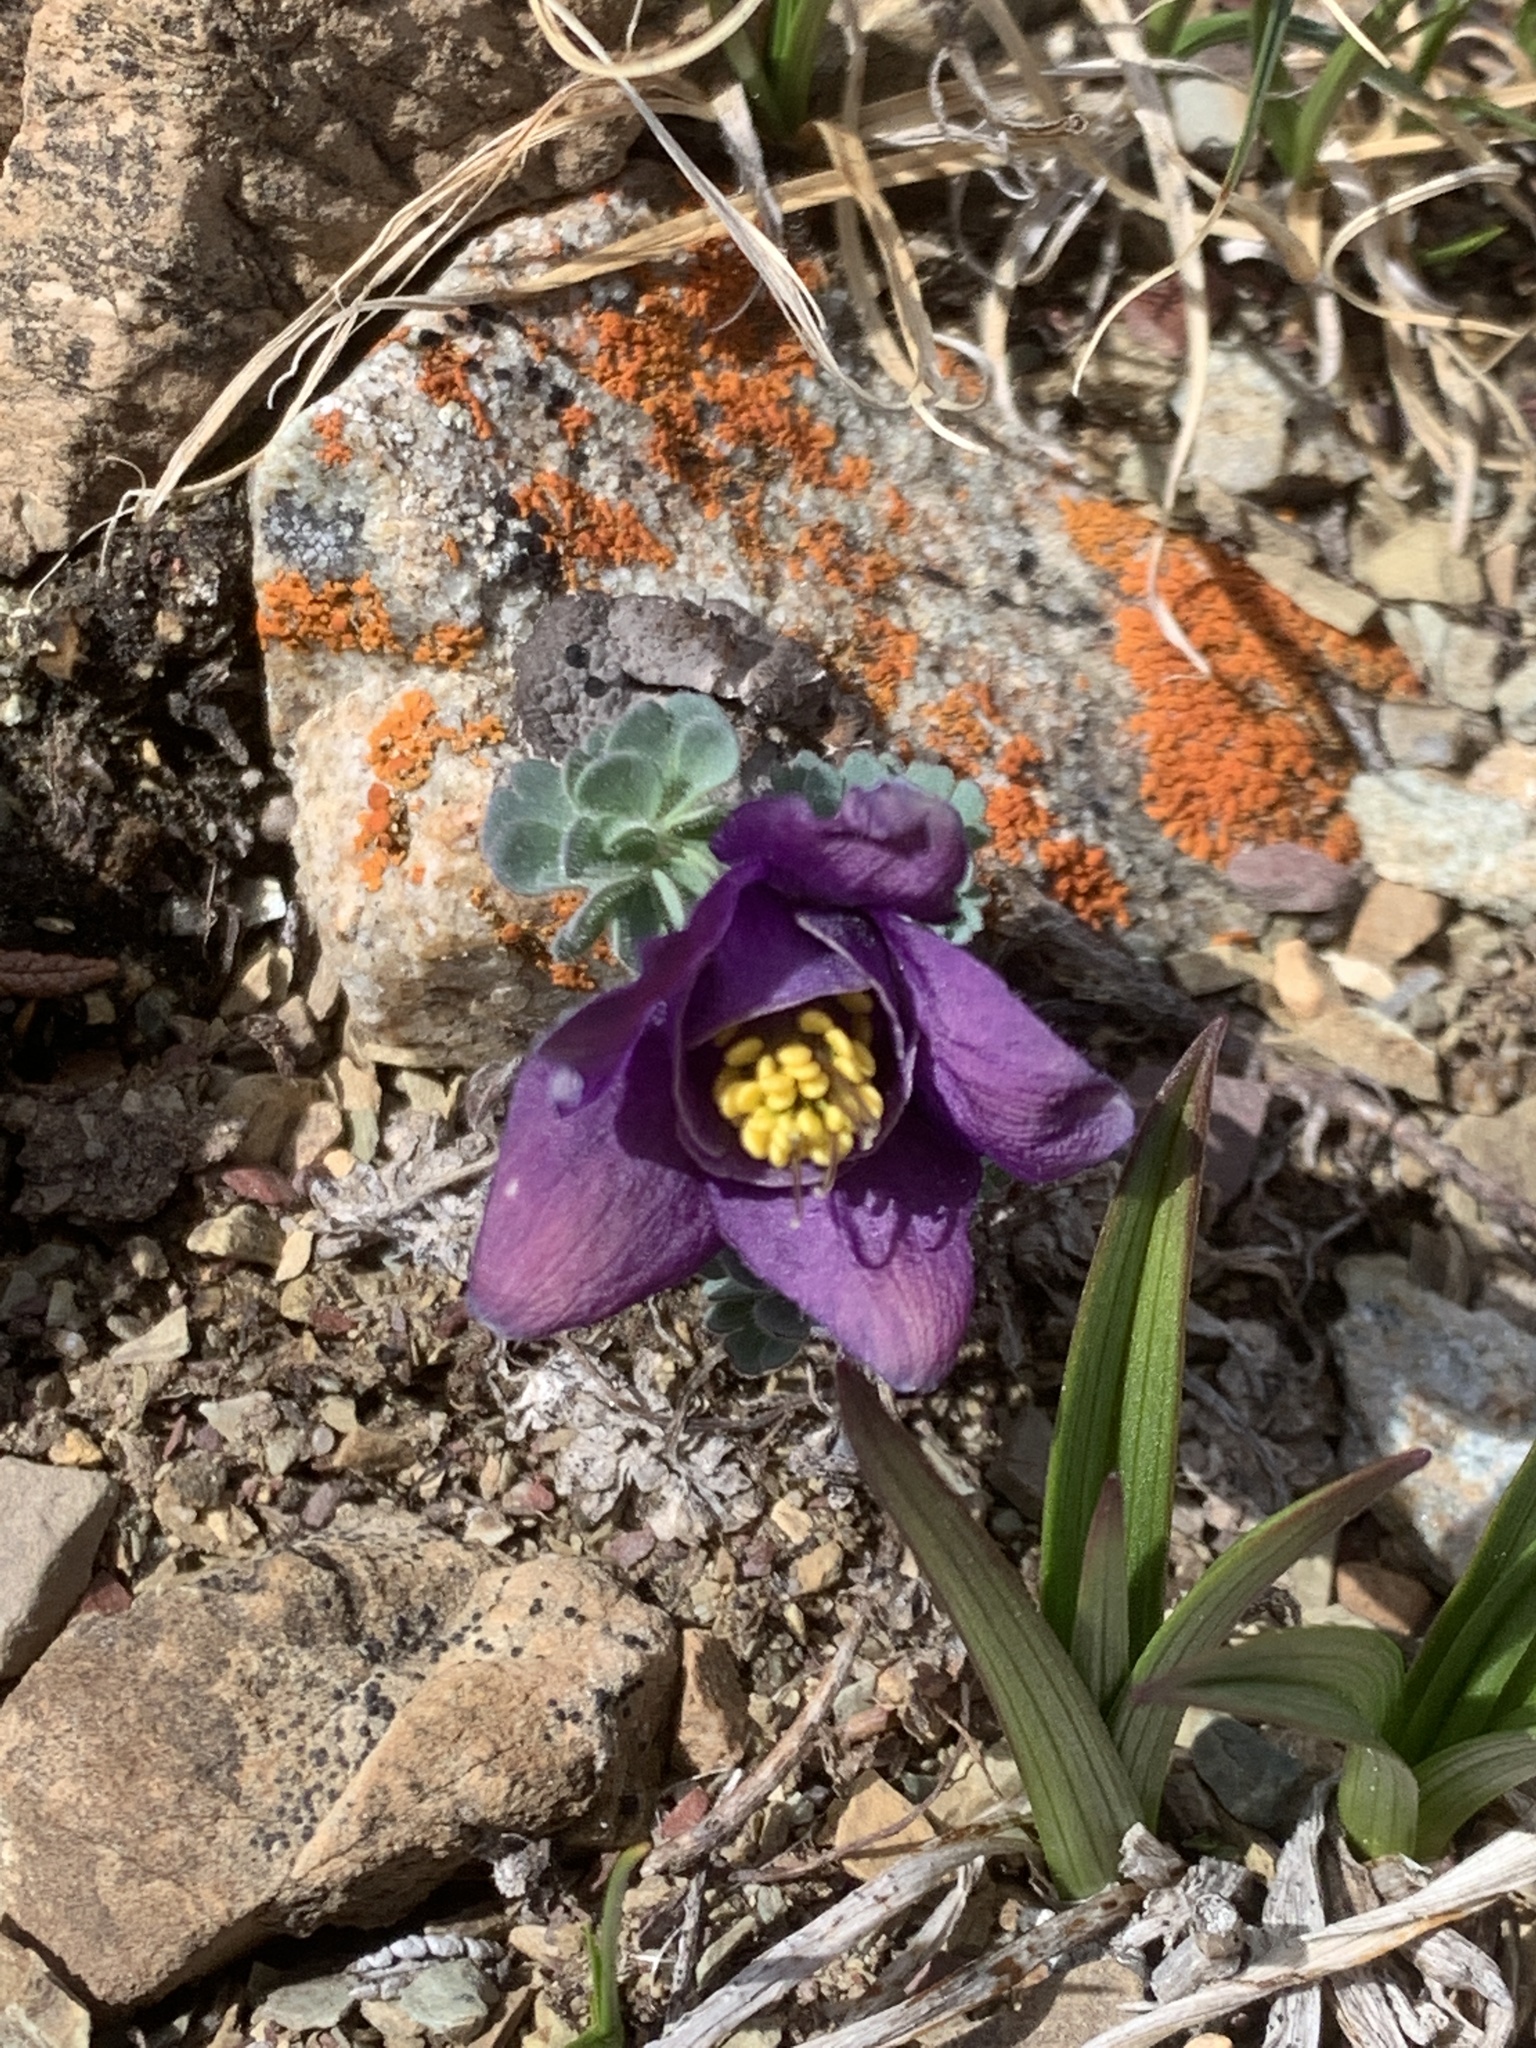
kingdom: Plantae
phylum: Tracheophyta
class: Magnoliopsida
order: Ranunculales
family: Ranunculaceae
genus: Aquilegia
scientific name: Aquilegia jonesii
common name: Jones' columbine
